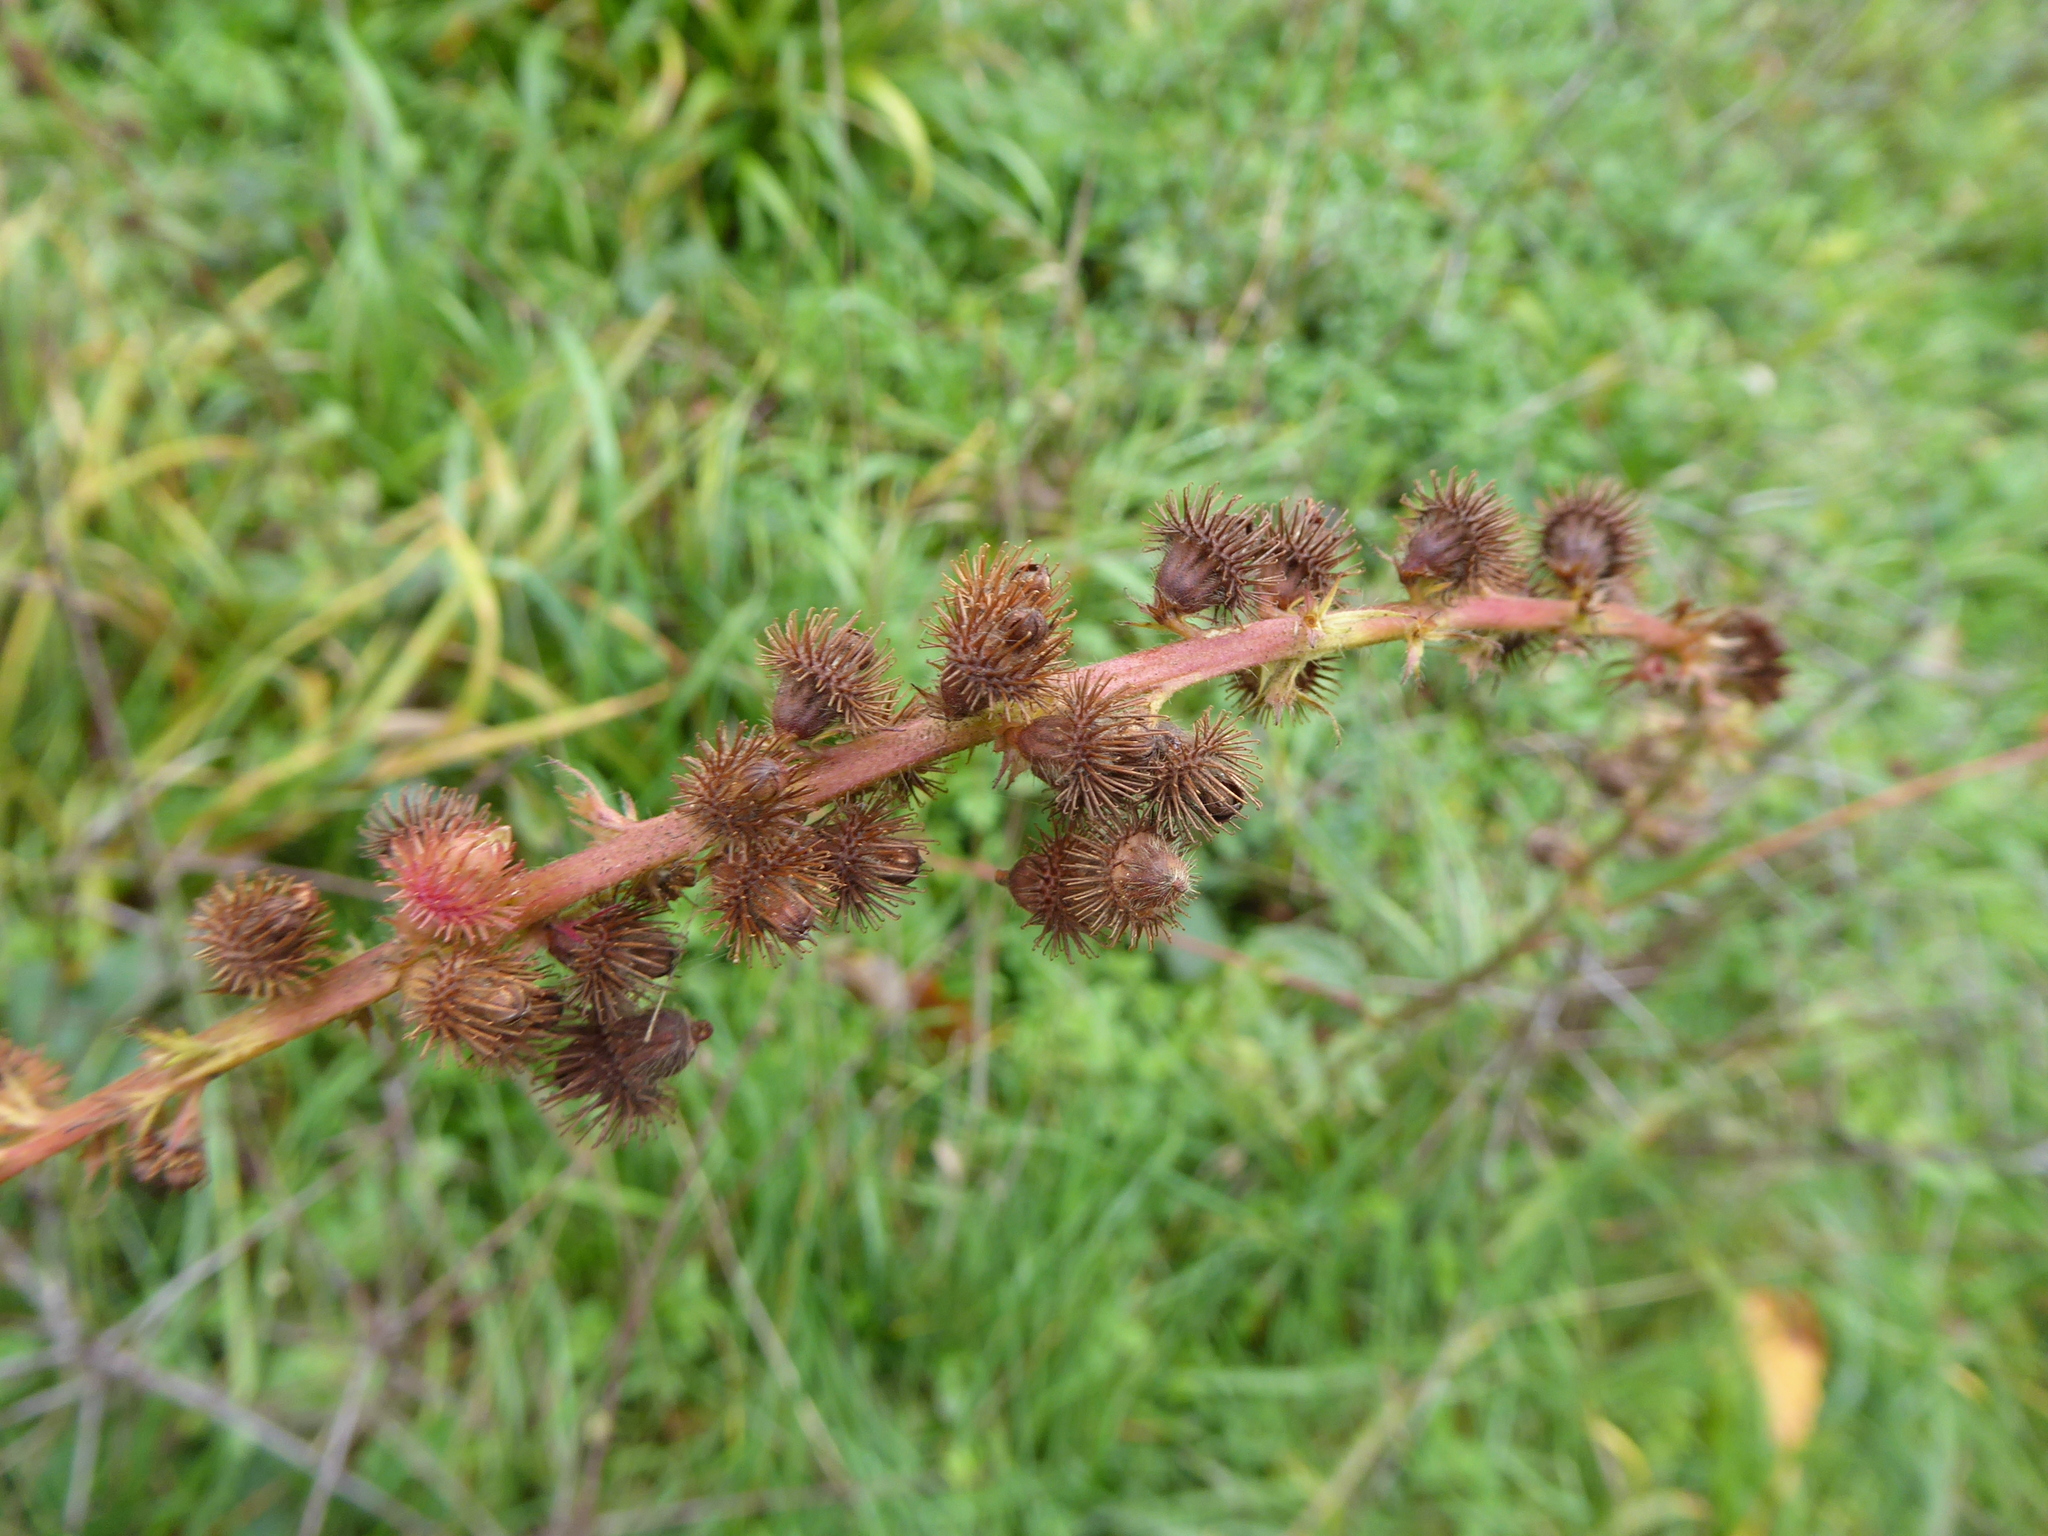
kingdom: Plantae
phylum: Tracheophyta
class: Magnoliopsida
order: Rosales
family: Rosaceae
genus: Agrimonia
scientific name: Agrimonia procera
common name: Fragrant agrimony
